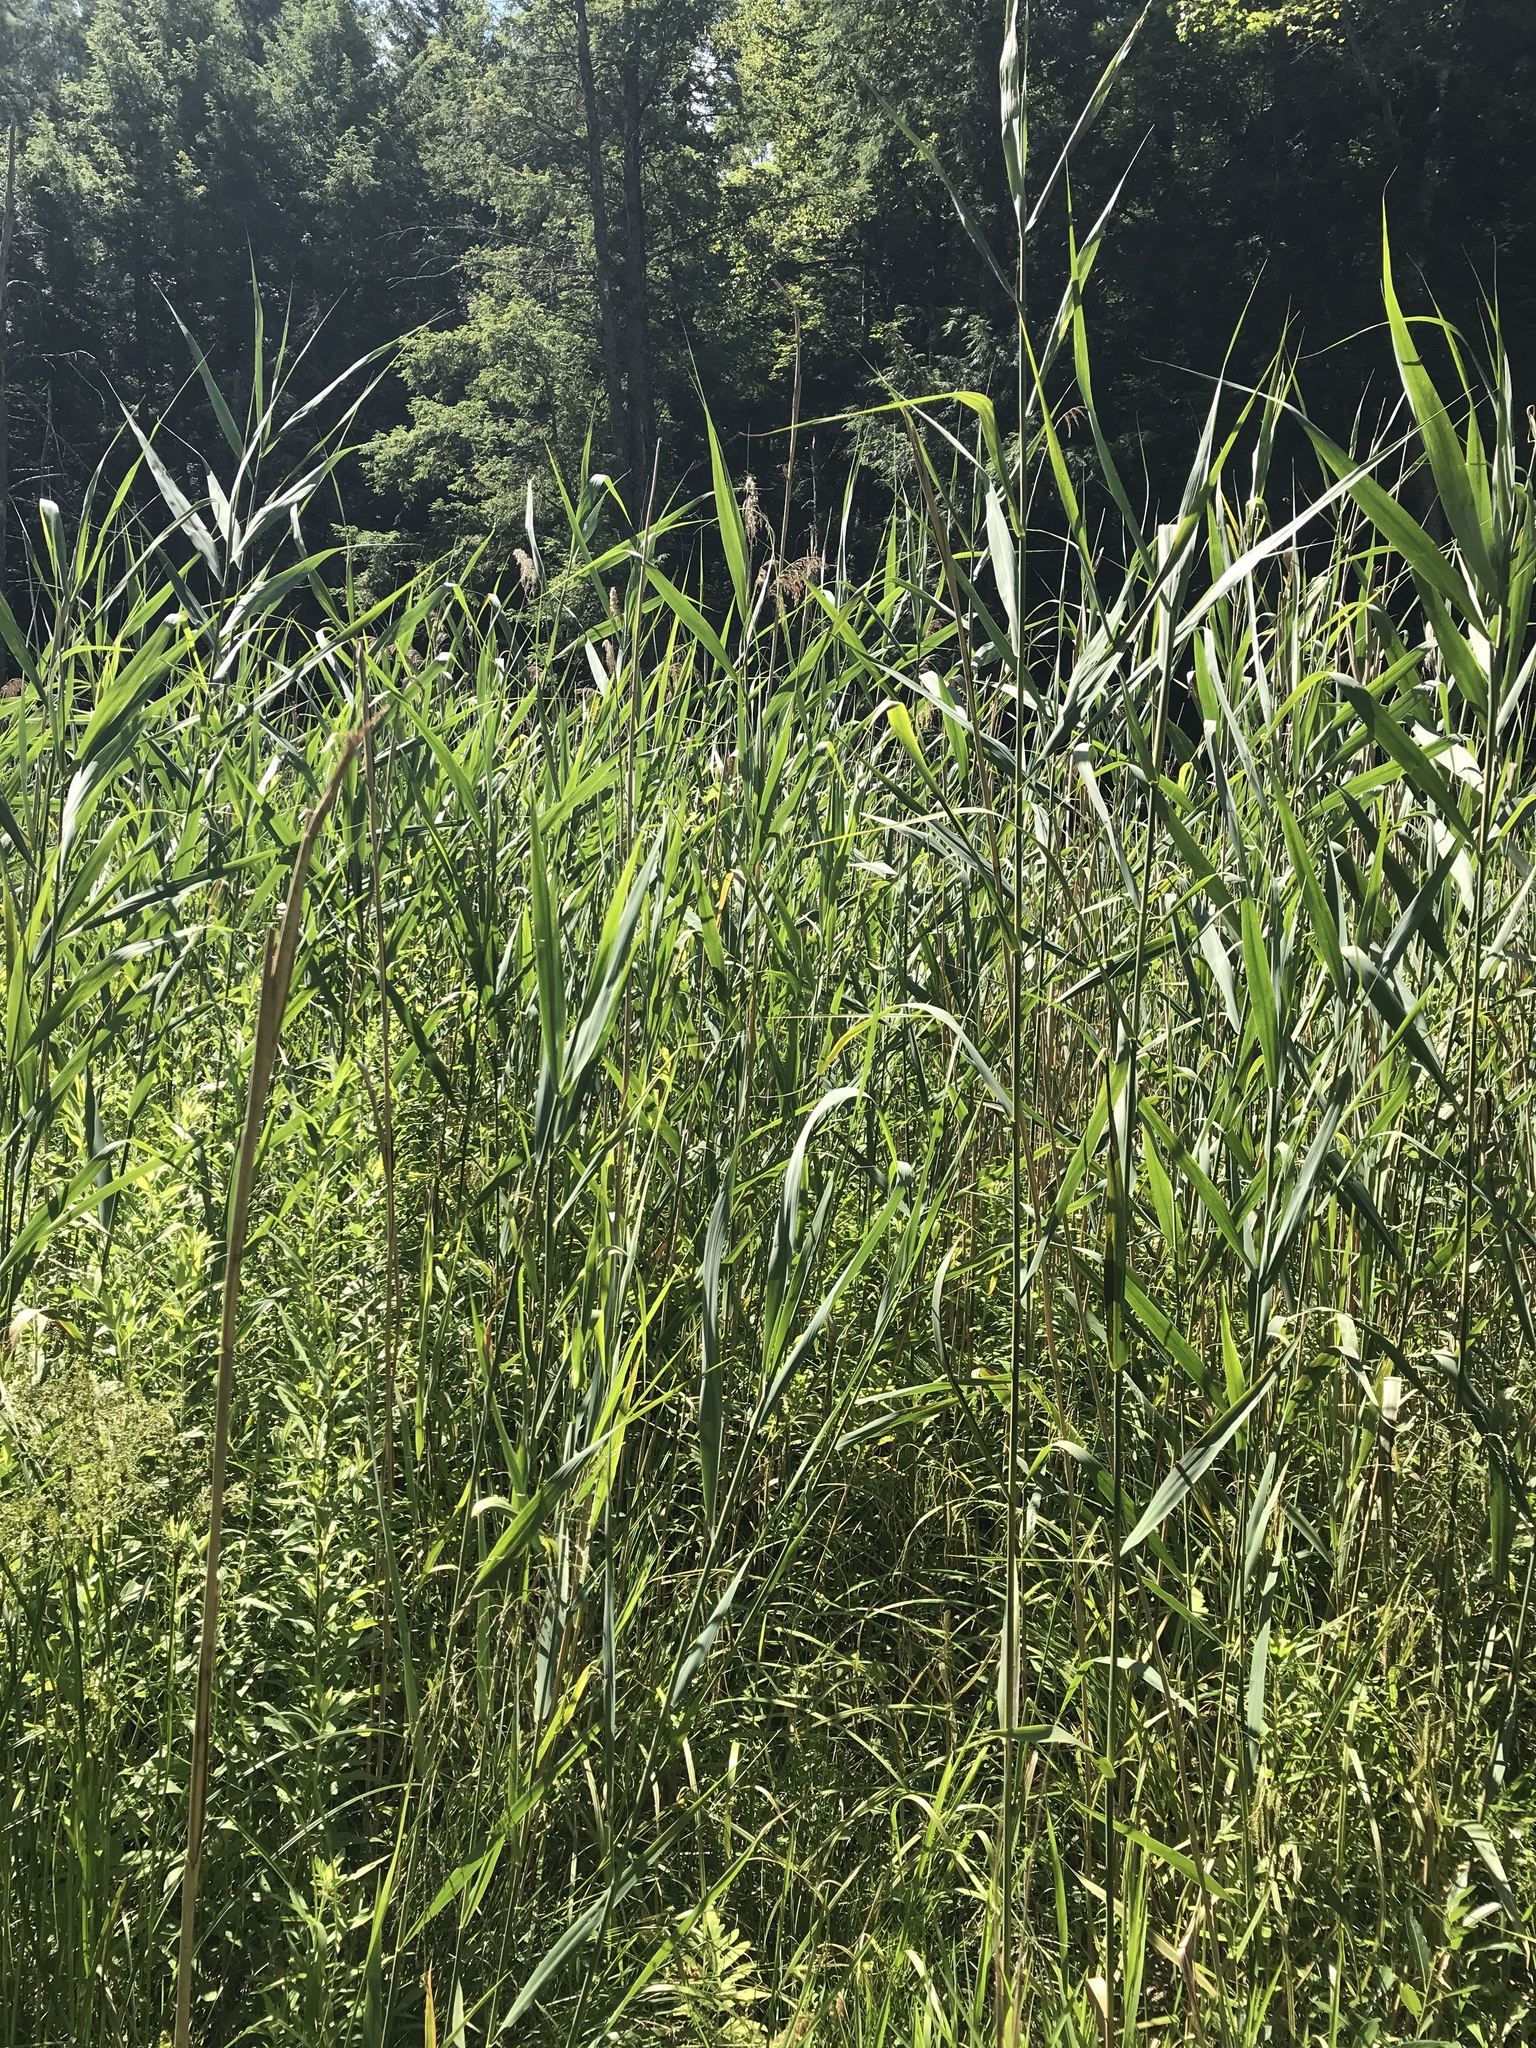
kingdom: Plantae
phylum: Tracheophyta
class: Liliopsida
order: Poales
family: Poaceae
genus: Phragmites
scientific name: Phragmites australis
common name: Common reed
